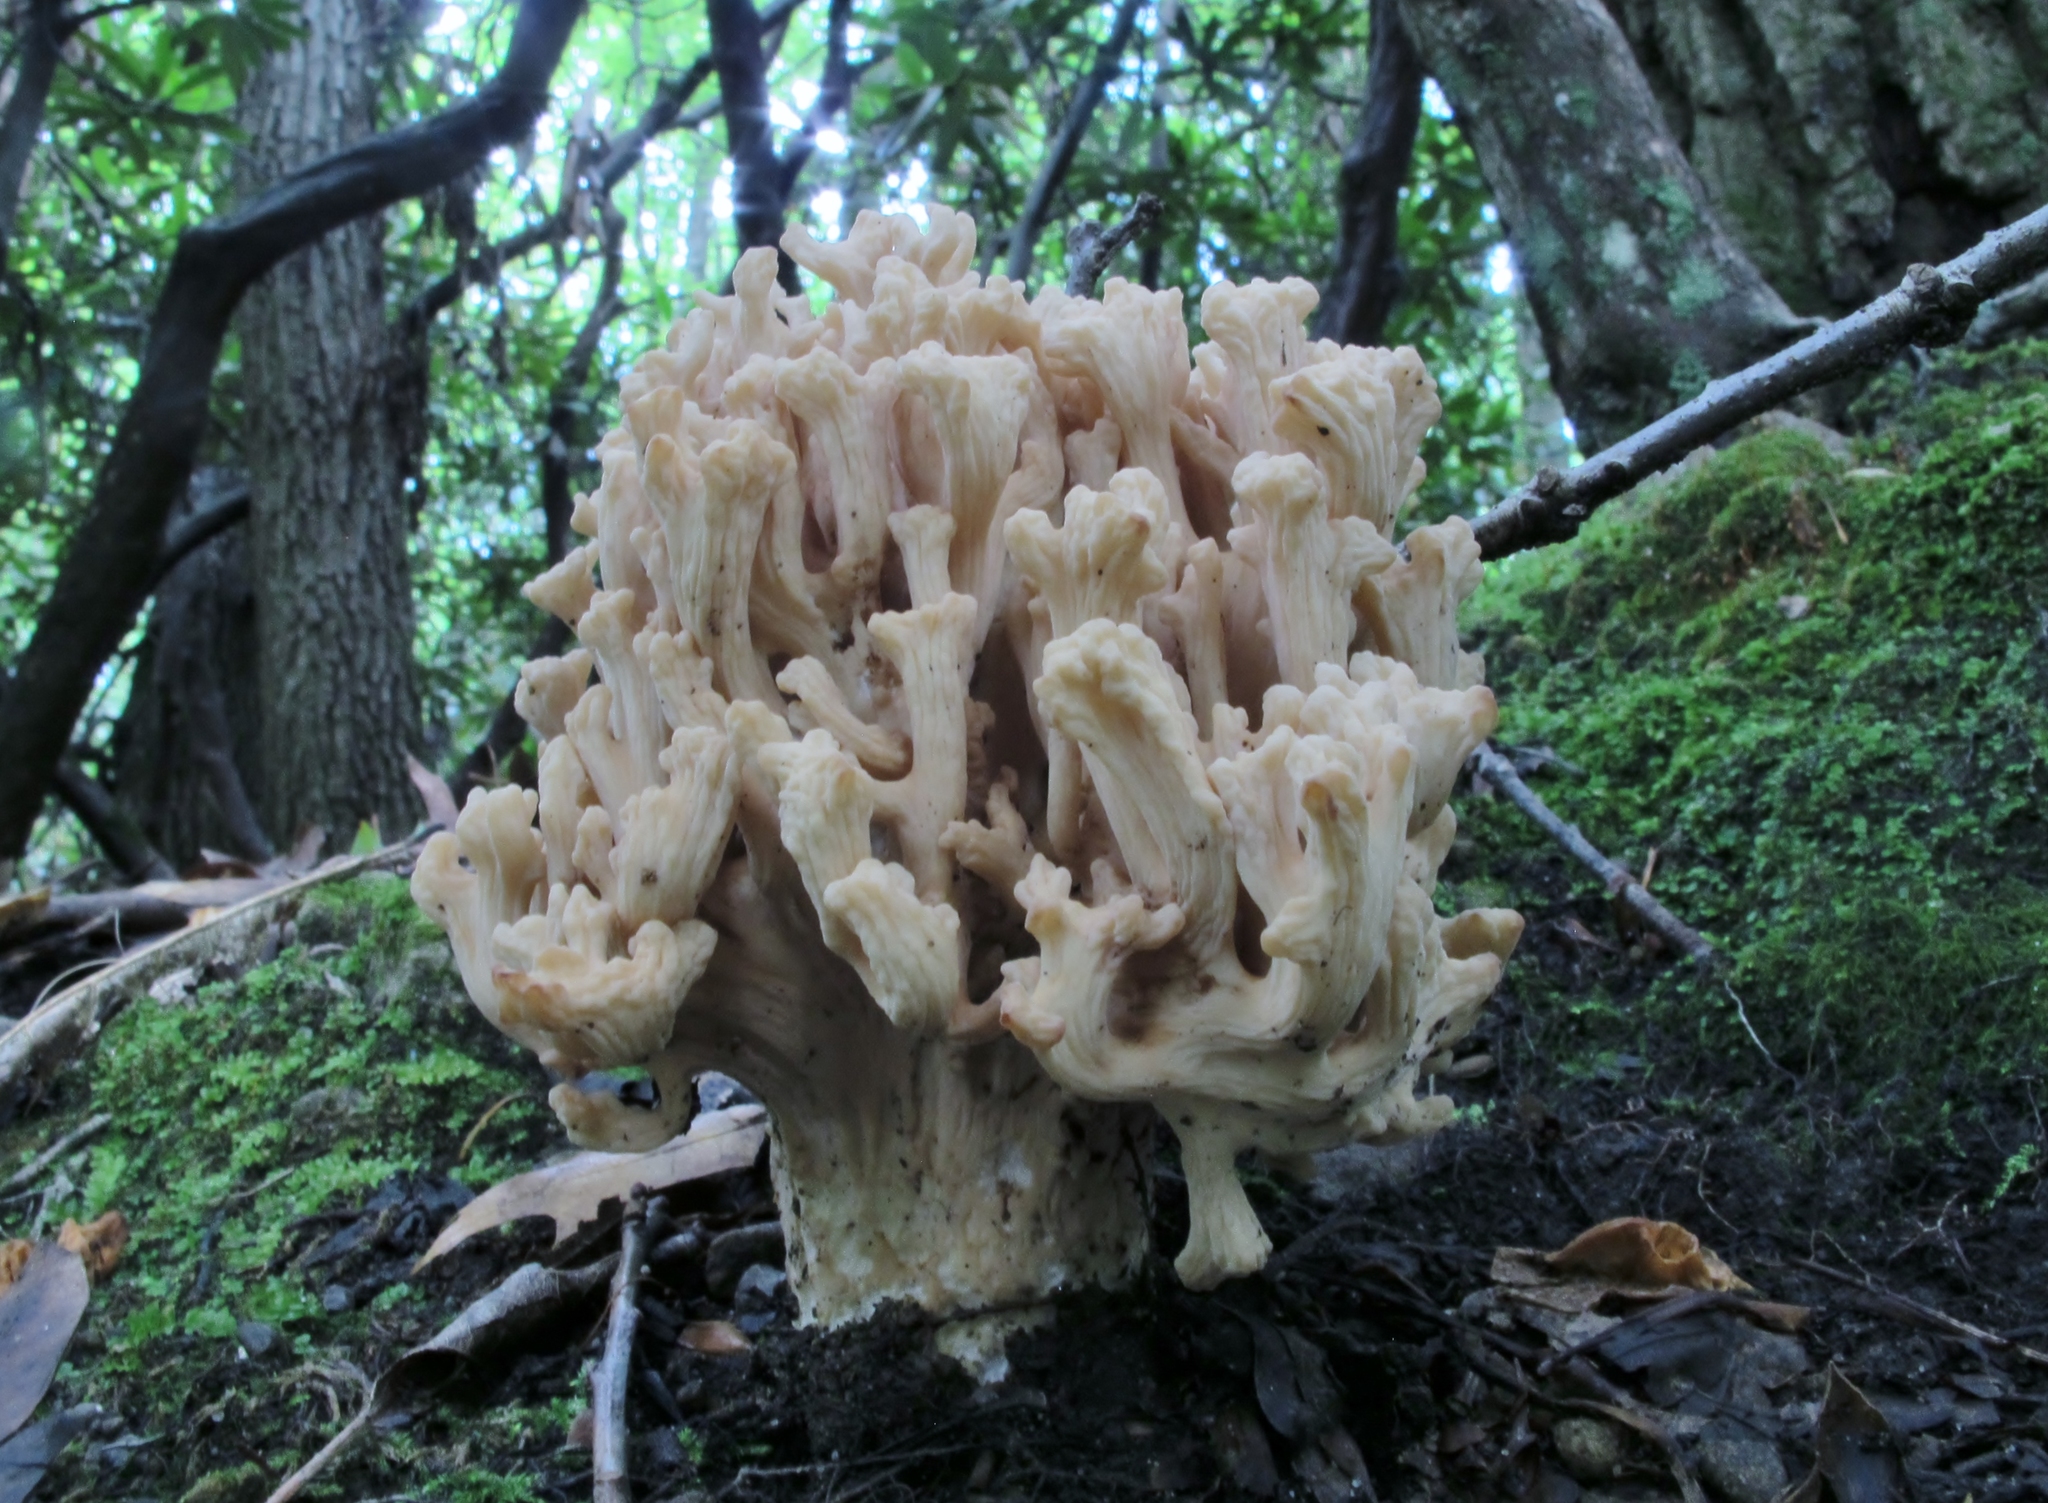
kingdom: Fungi
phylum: Basidiomycota
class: Agaricomycetes
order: Cantharellales
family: Hydnaceae
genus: Clavulina
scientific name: Clavulina rugosa
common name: Wrinkled club
